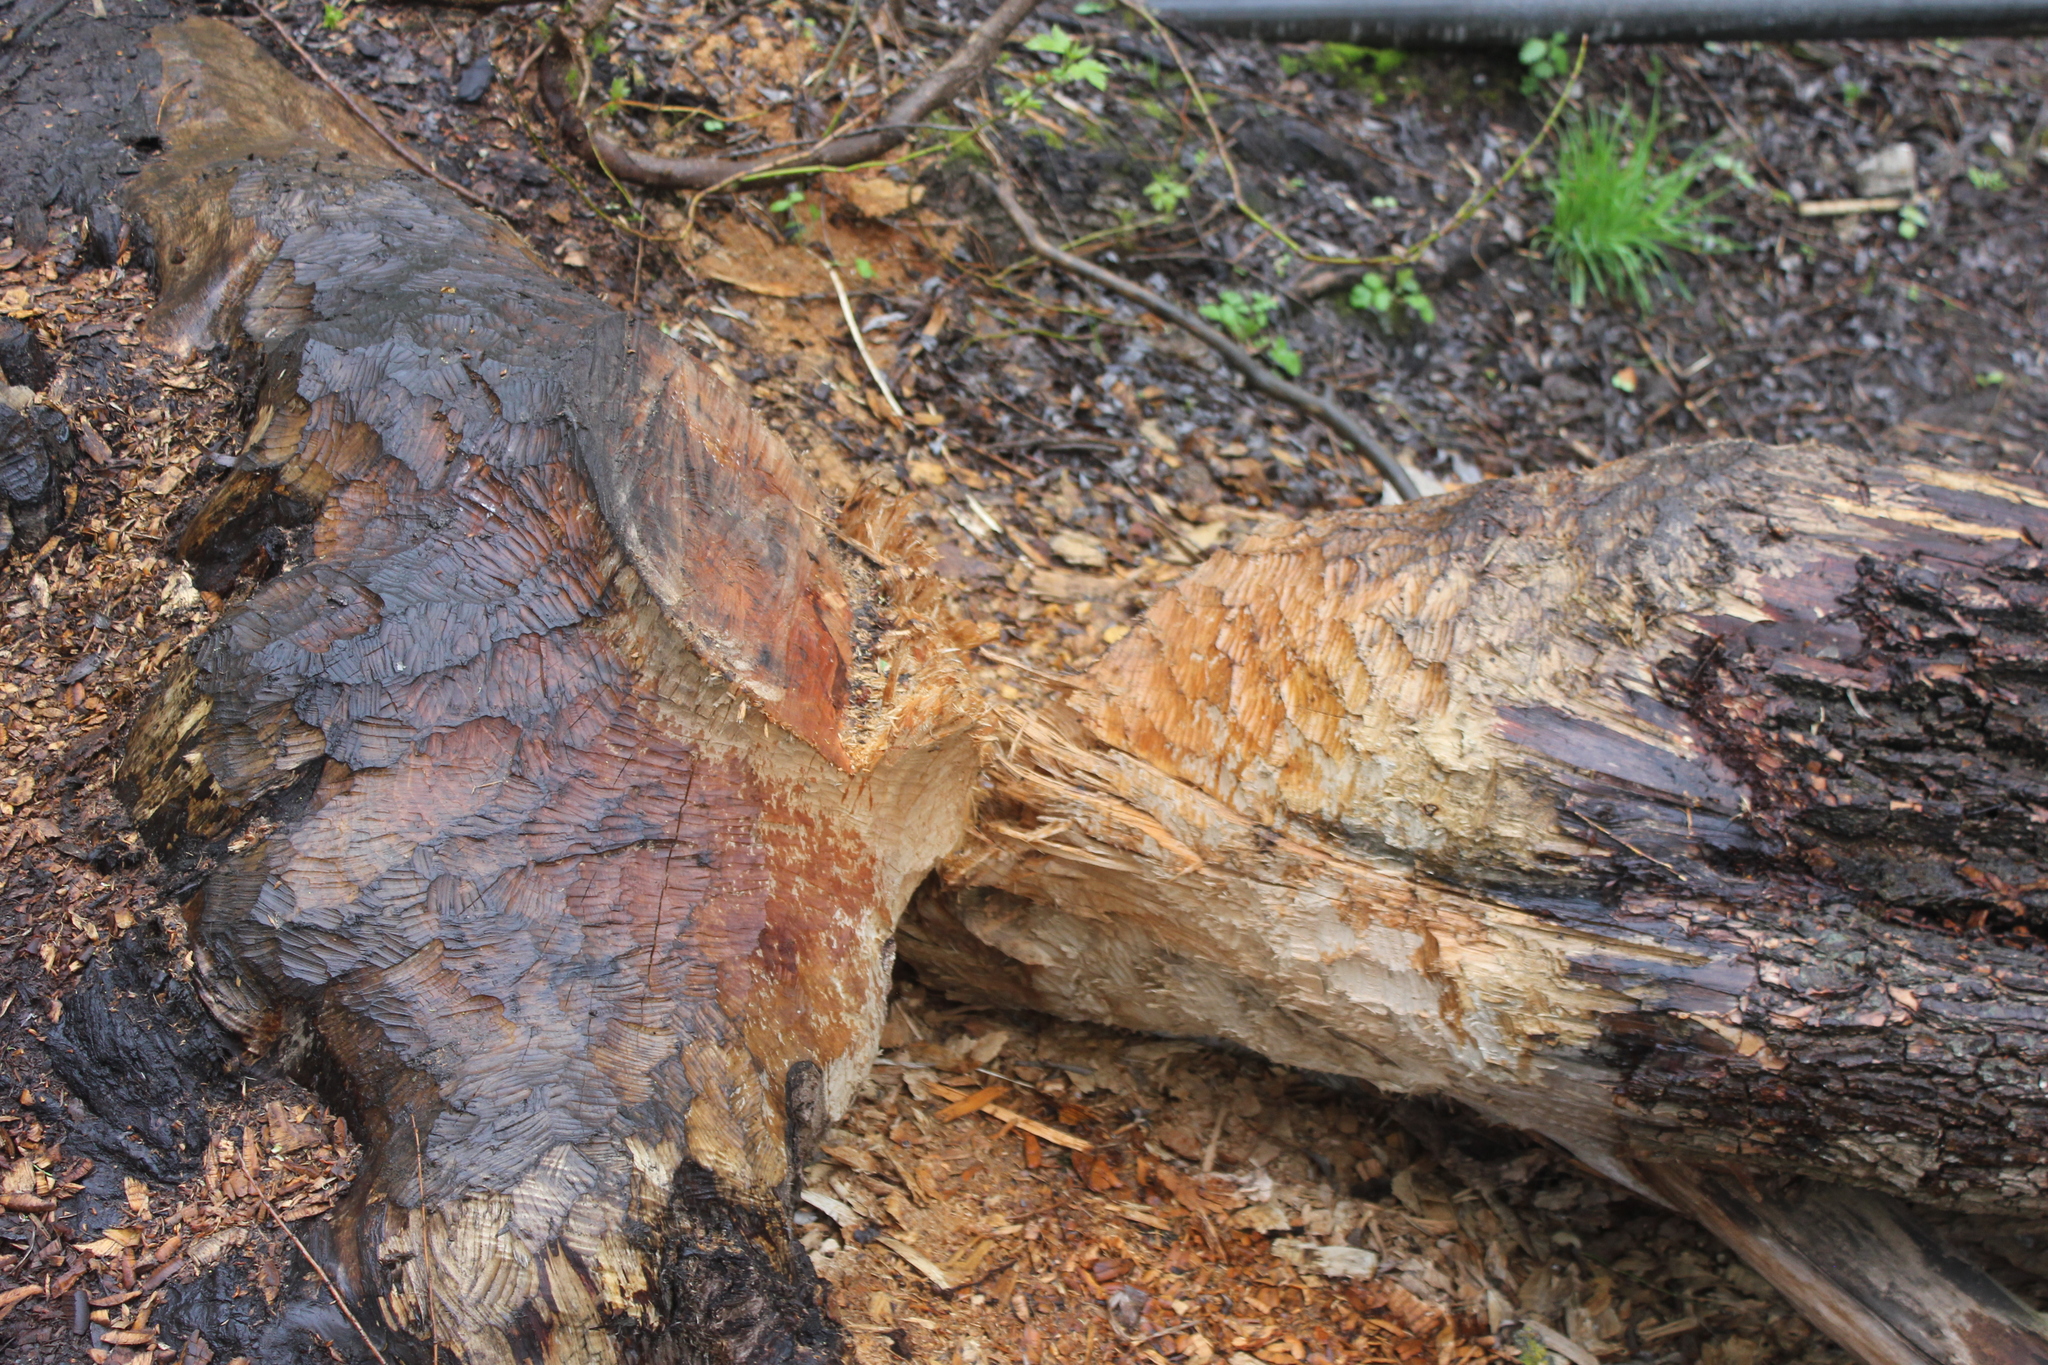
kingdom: Animalia
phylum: Chordata
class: Mammalia
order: Rodentia
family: Castoridae
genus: Castor
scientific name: Castor fiber
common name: Eurasian beaver
